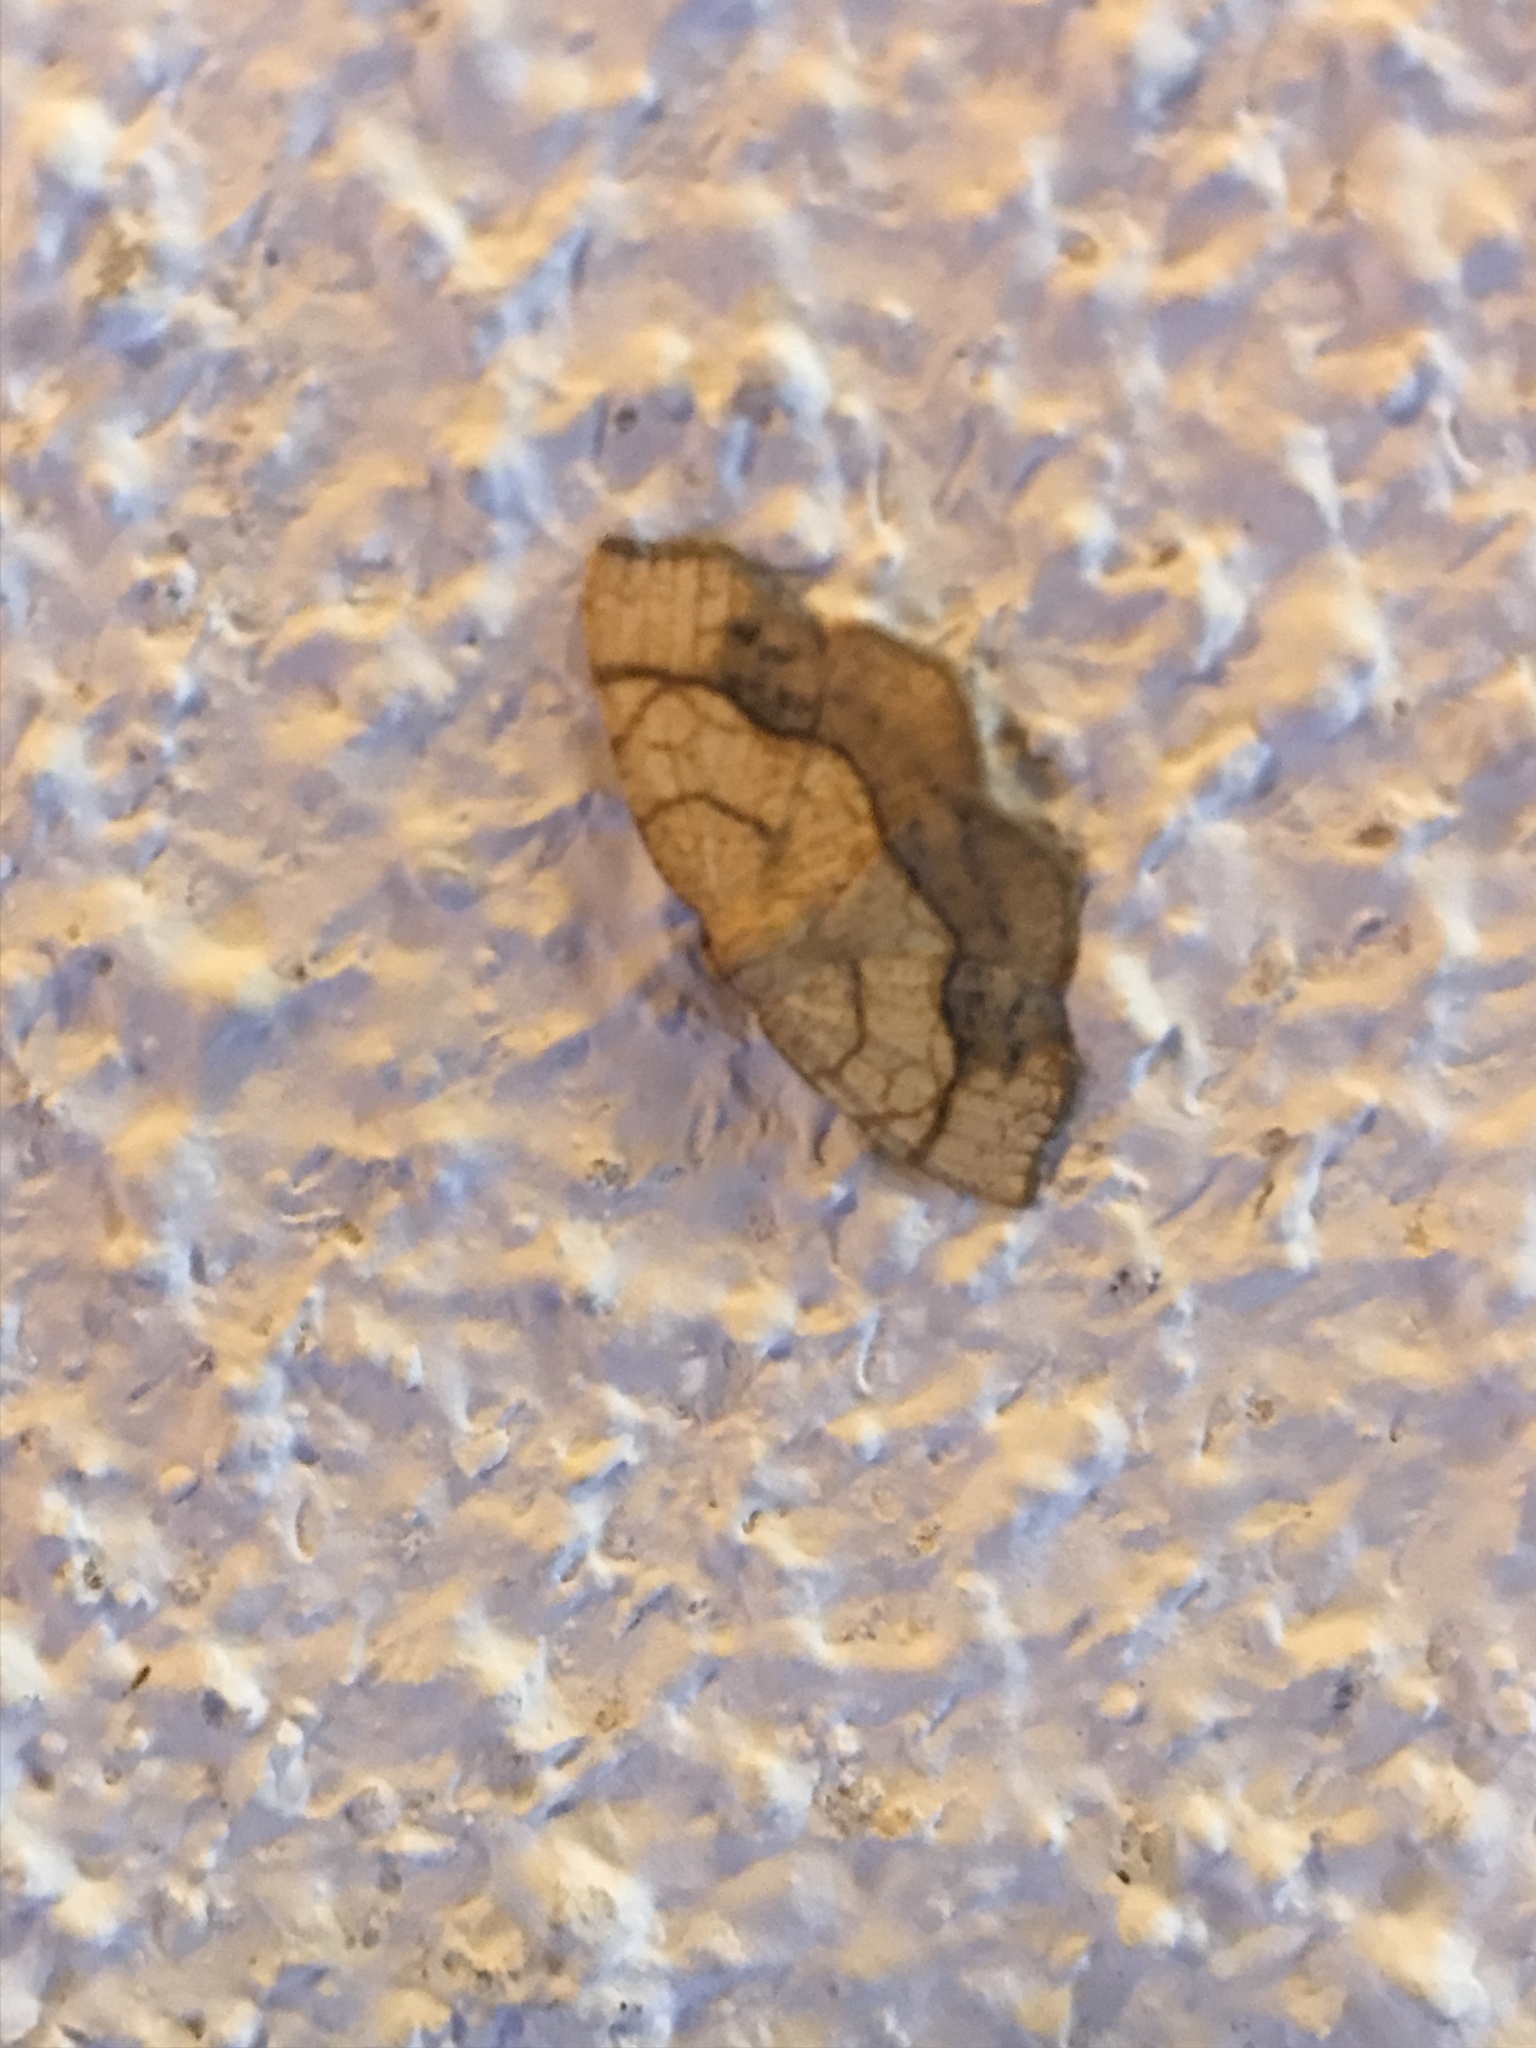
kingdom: Animalia
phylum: Arthropoda
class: Insecta
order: Lepidoptera
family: Geometridae
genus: Nematocampa
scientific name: Nematocampa resistaria
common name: Horned spanworm moth
